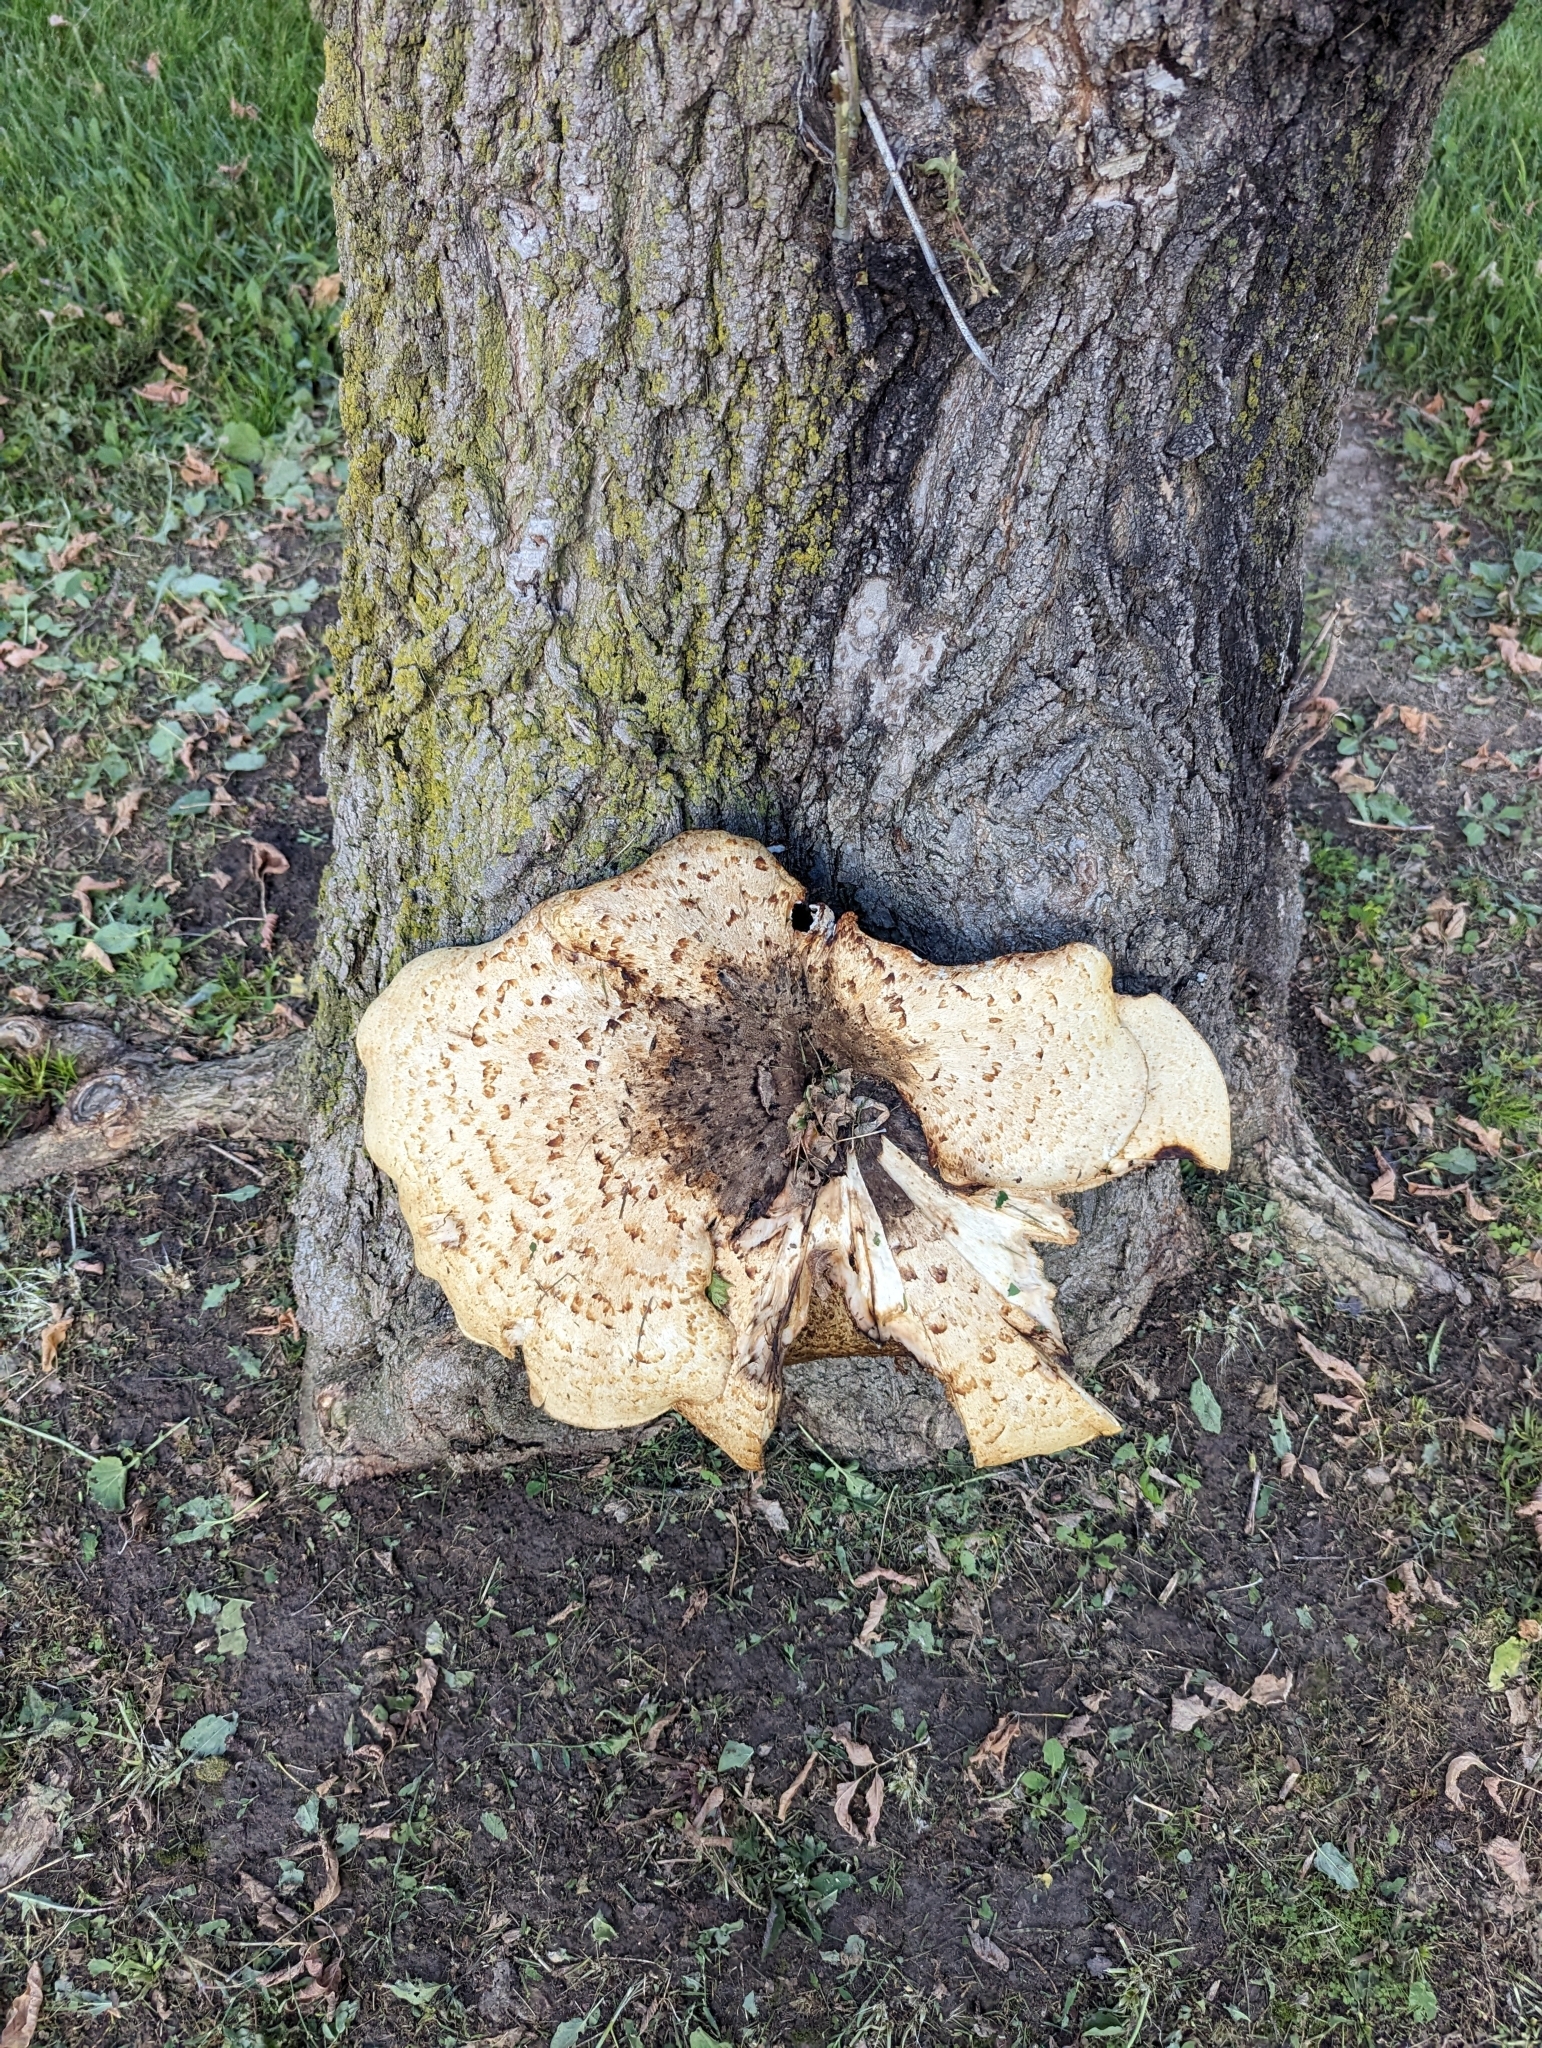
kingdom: Fungi
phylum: Basidiomycota
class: Agaricomycetes
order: Polyporales
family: Polyporaceae
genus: Cerioporus
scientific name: Cerioporus squamosus
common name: Dryad's saddle
